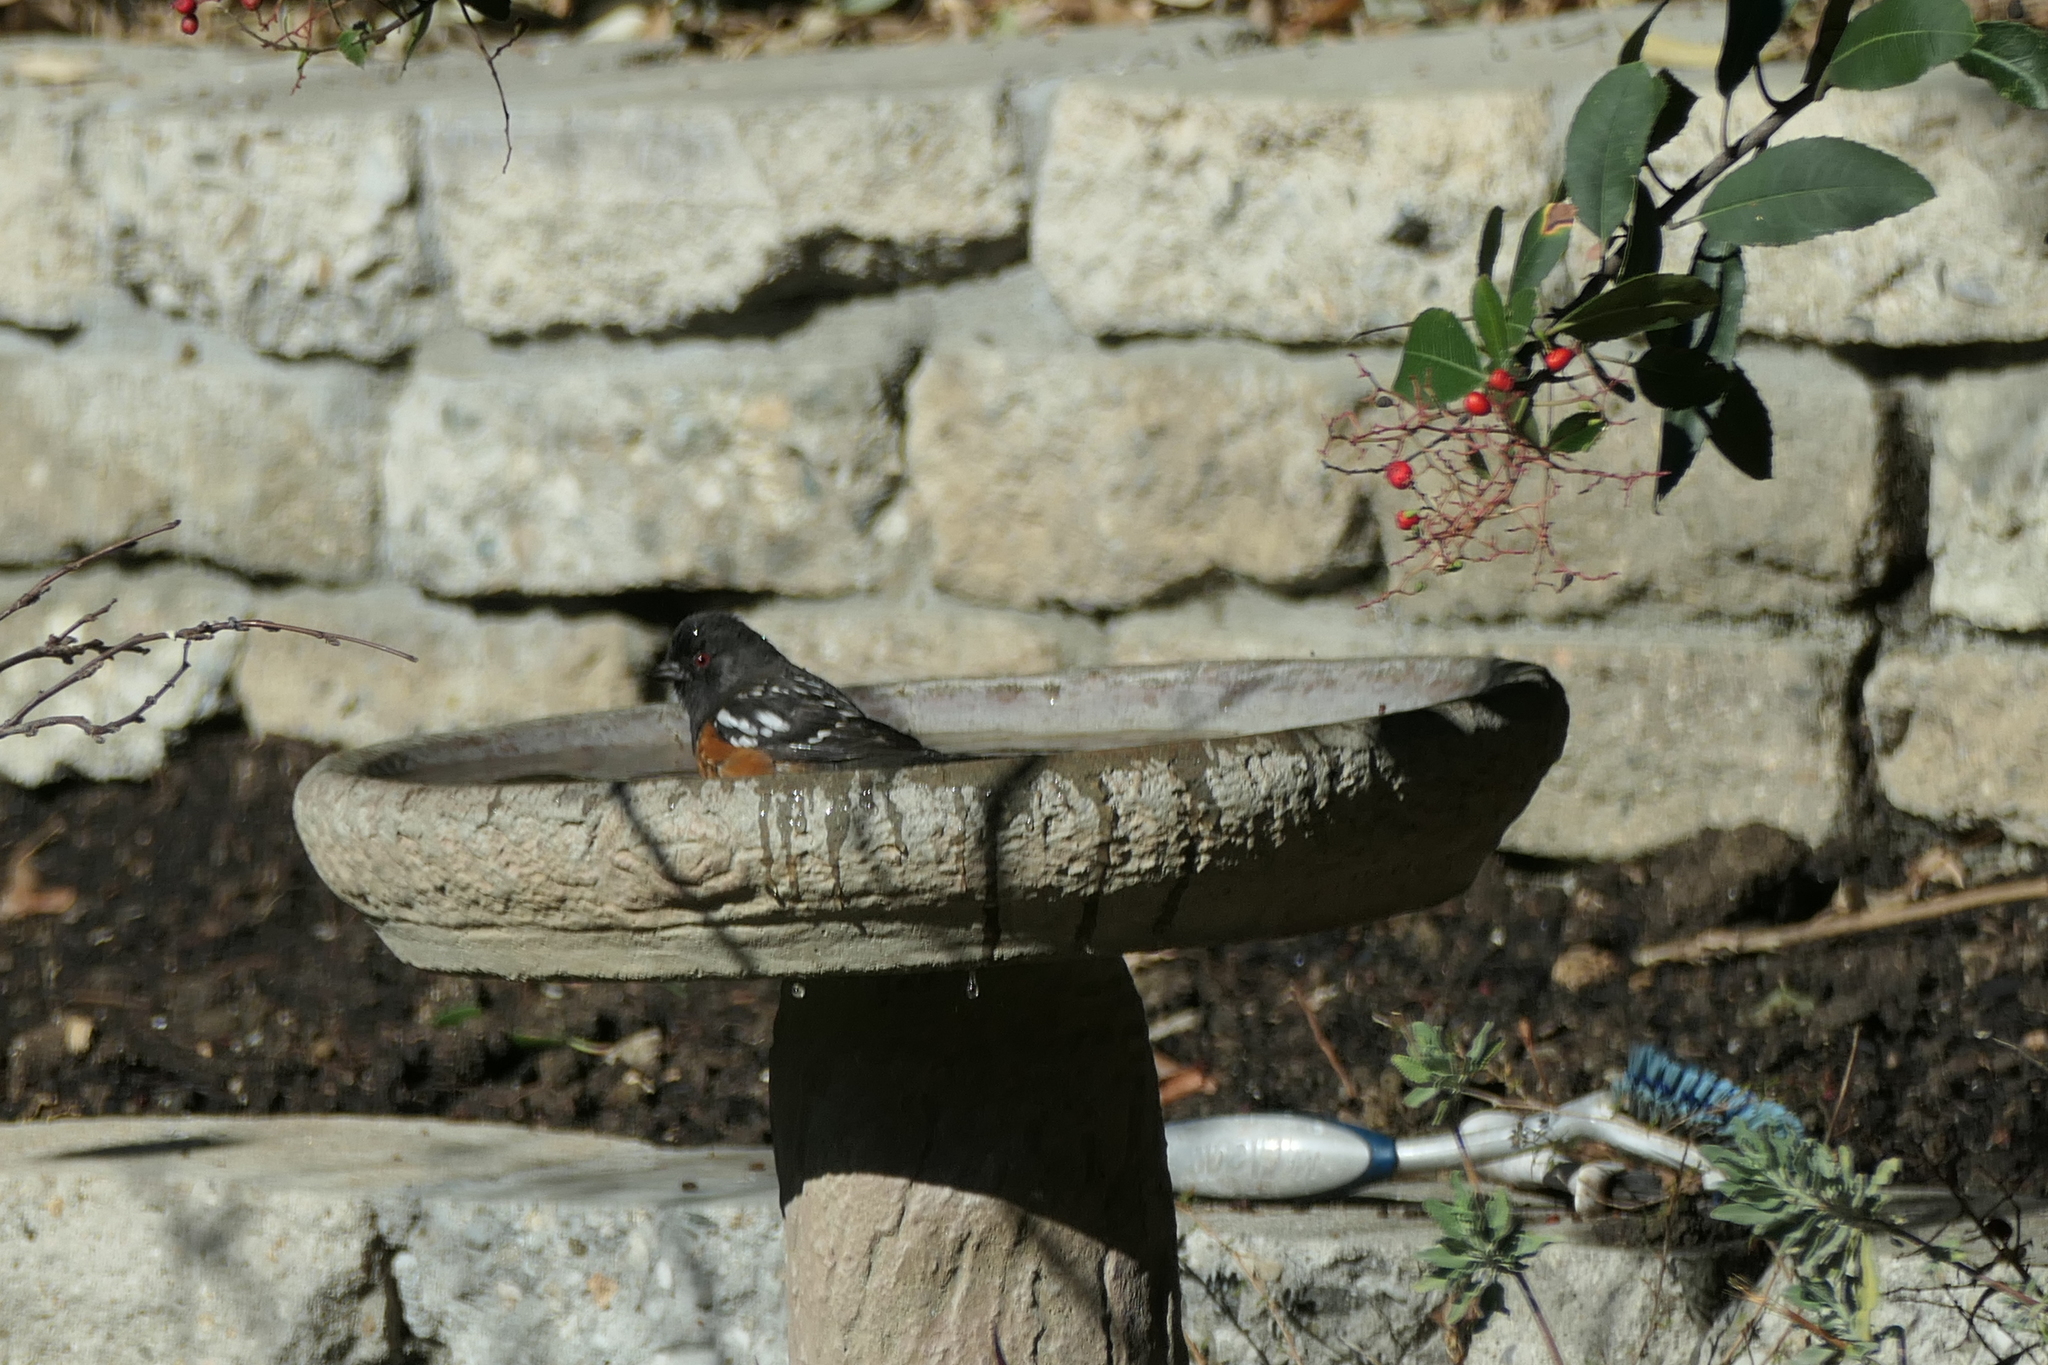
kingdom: Animalia
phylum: Chordata
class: Aves
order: Passeriformes
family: Passerellidae
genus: Pipilo
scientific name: Pipilo maculatus
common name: Spotted towhee
